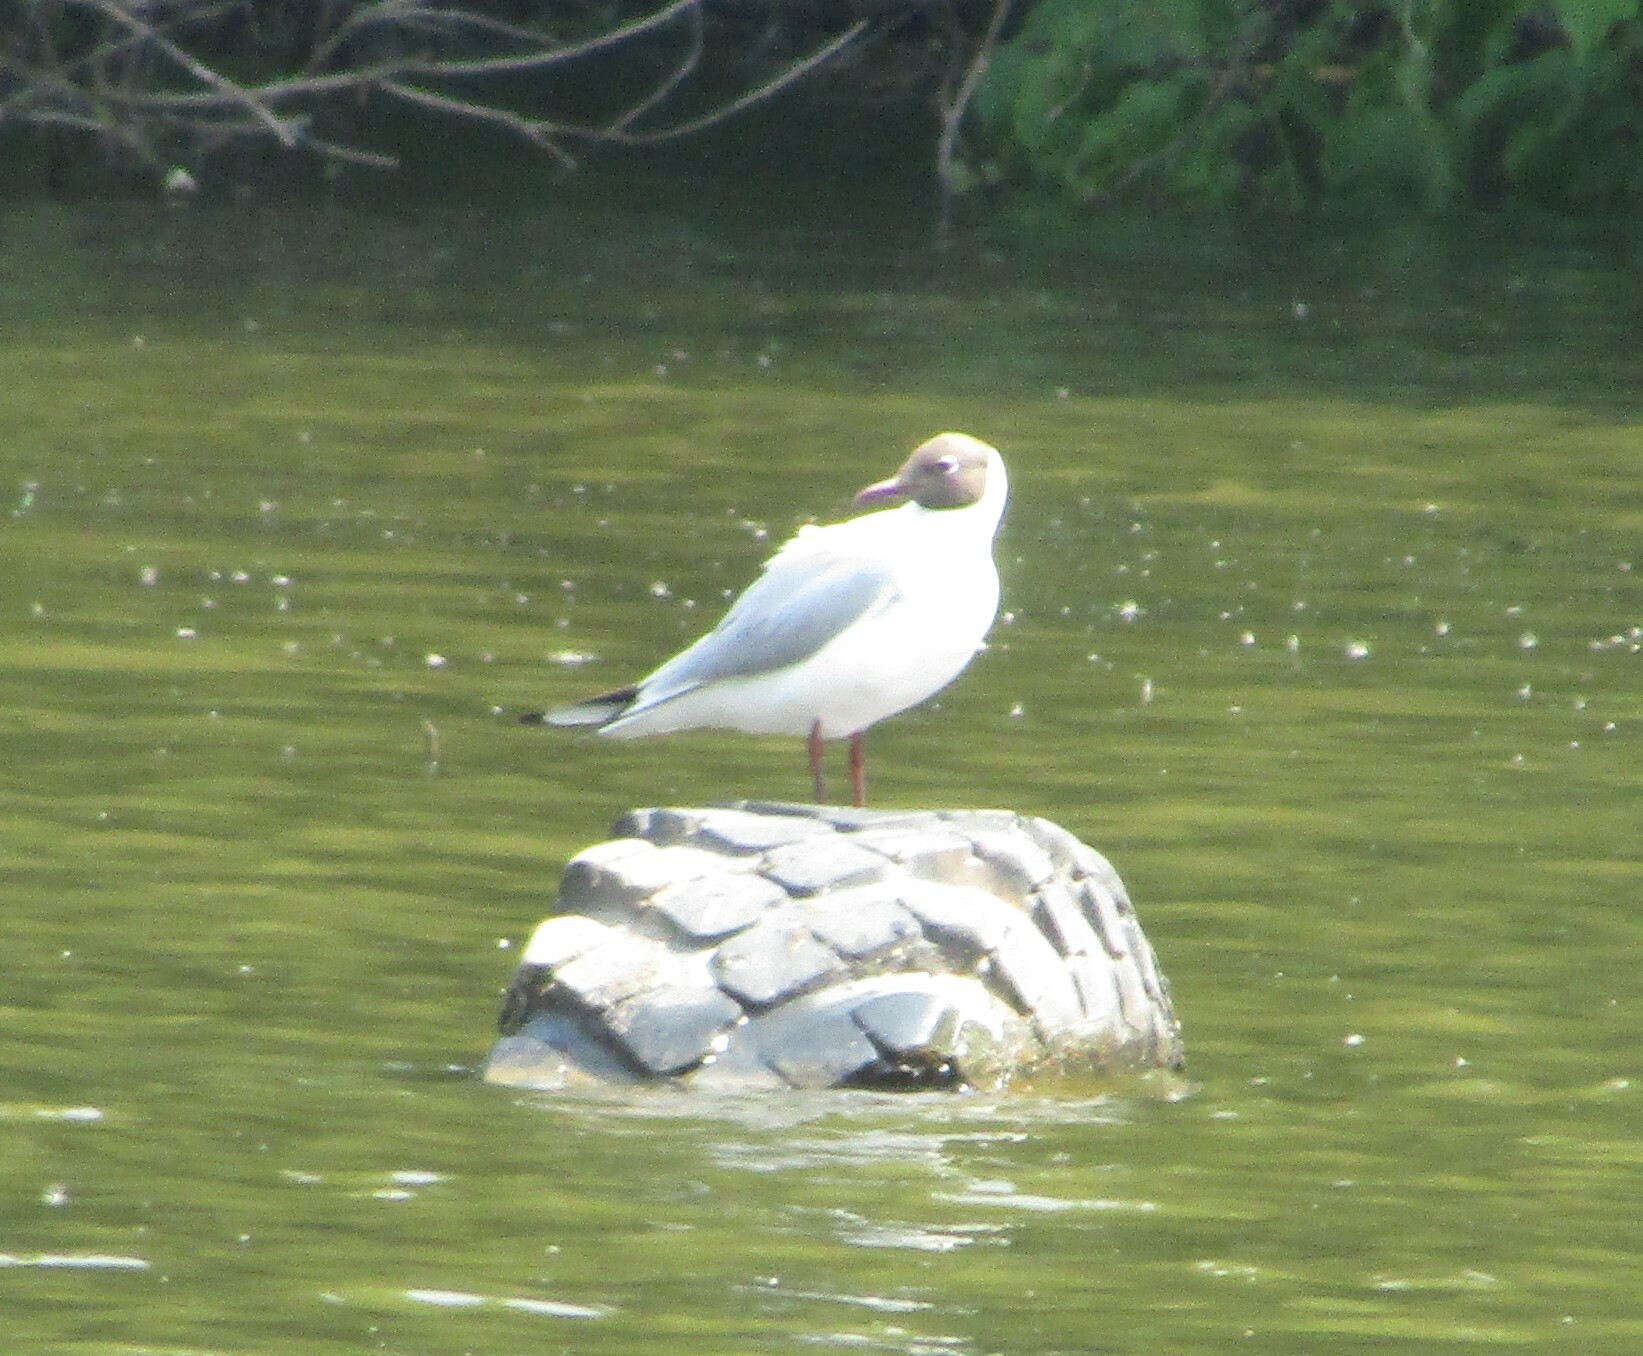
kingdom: Animalia
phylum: Chordata
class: Aves
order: Charadriiformes
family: Laridae
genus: Chroicocephalus
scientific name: Chroicocephalus ridibundus
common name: Black-headed gull
